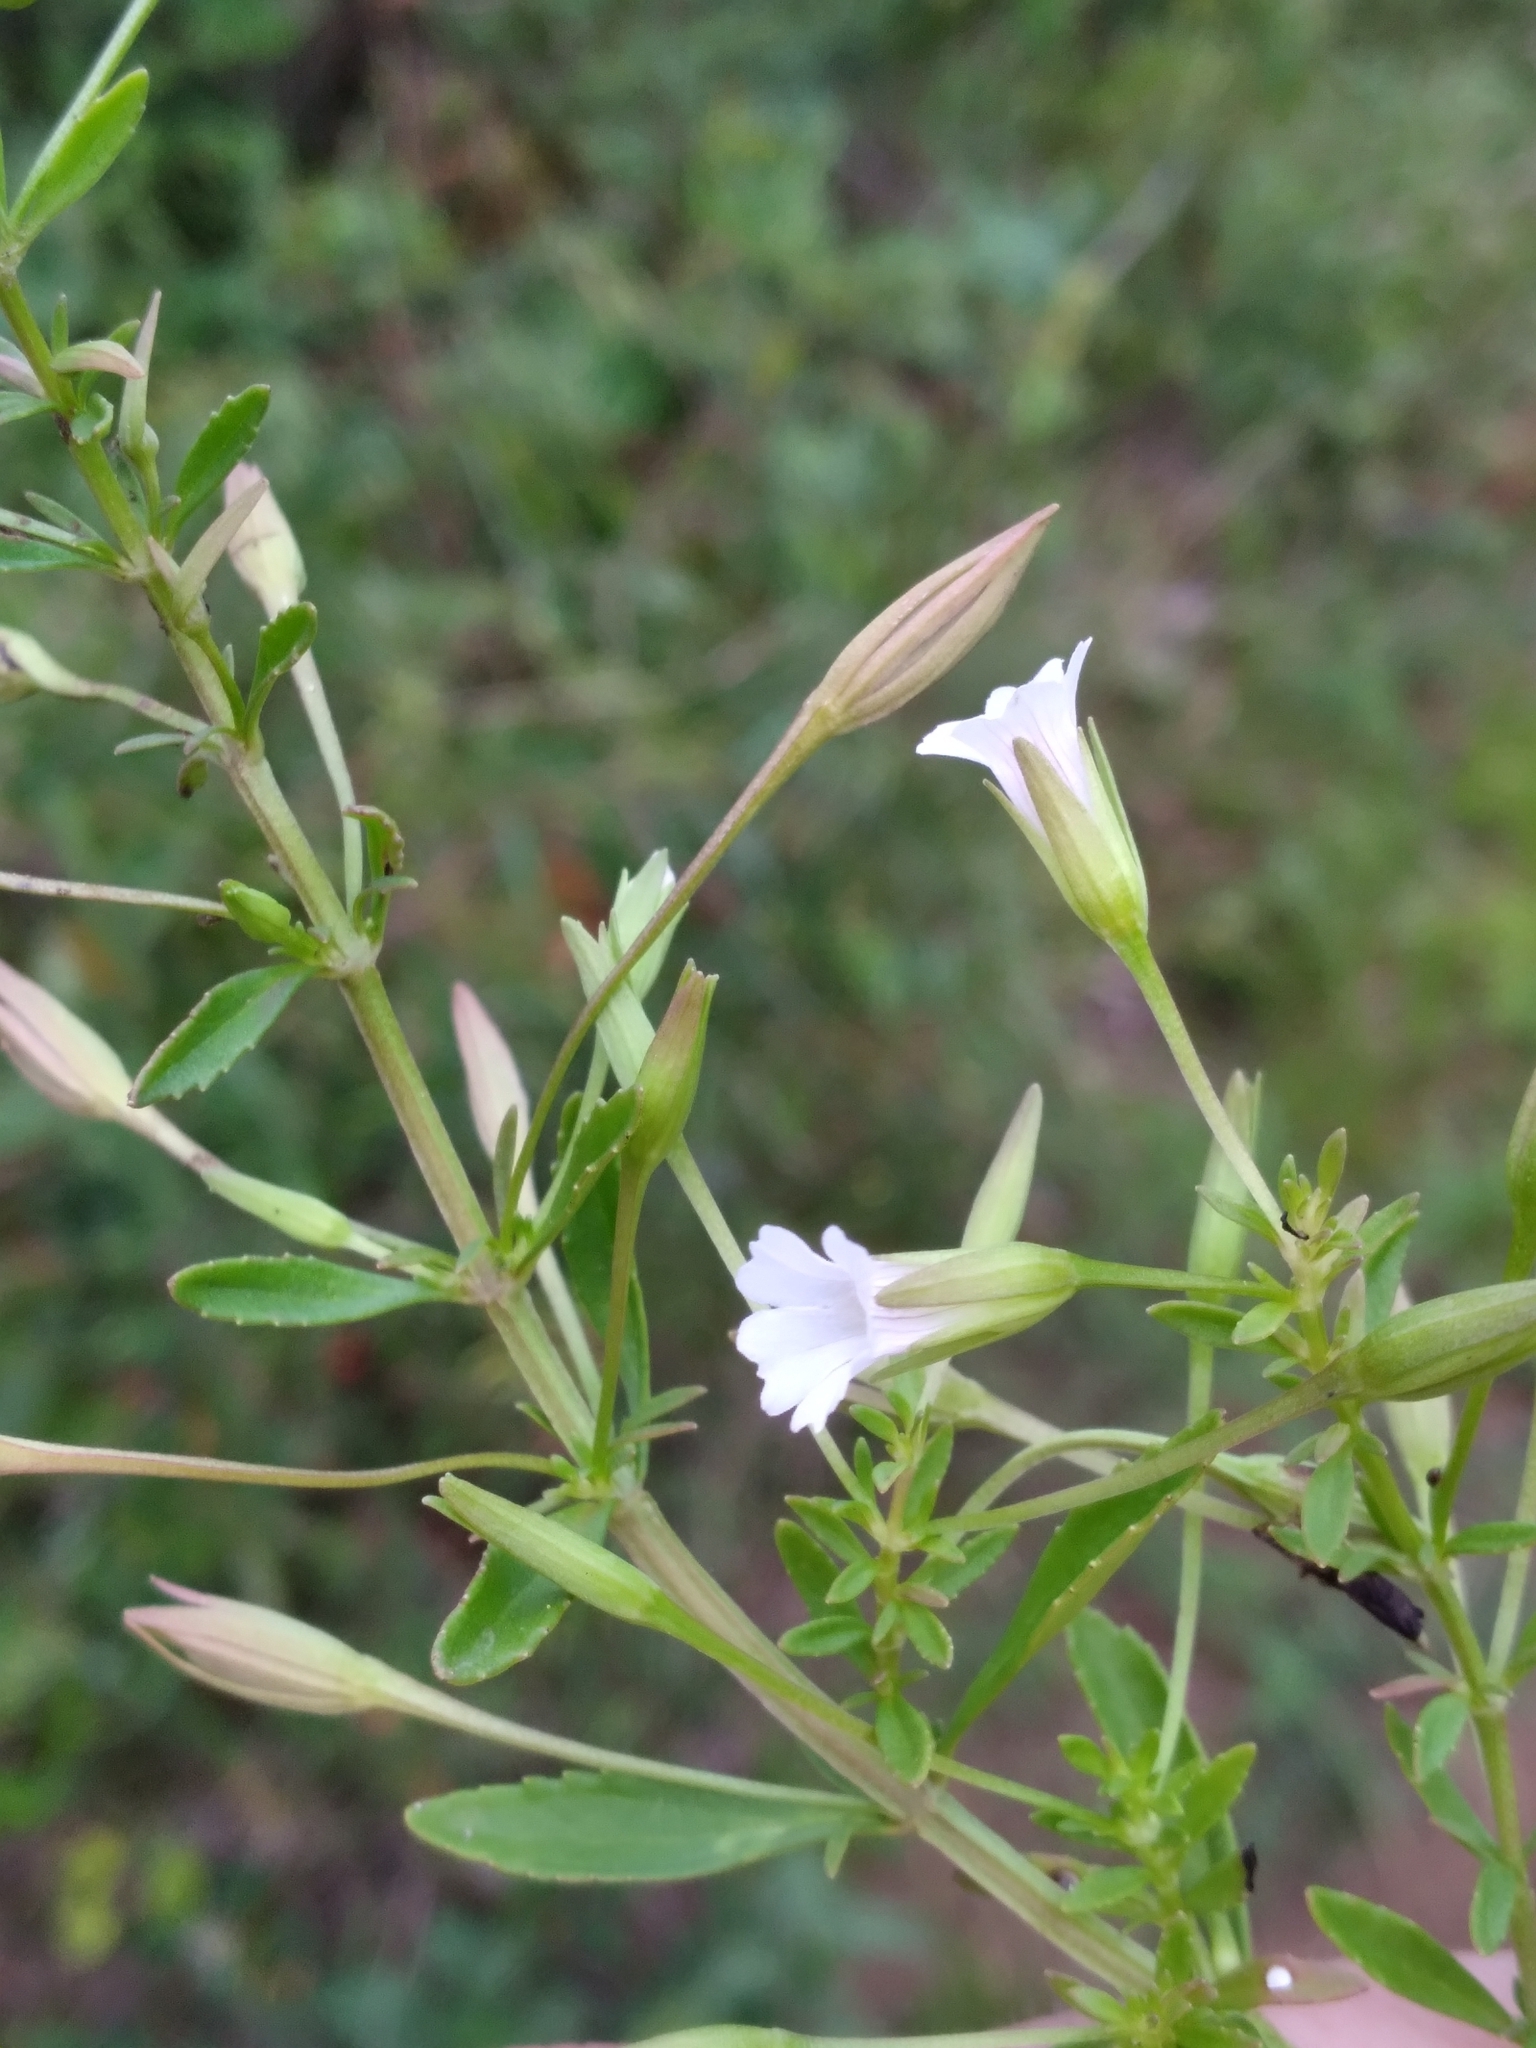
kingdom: Plantae
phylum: Tracheophyta
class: Magnoliopsida
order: Lamiales
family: Plantaginaceae
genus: Mecardonia
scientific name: Mecardonia acuminata
